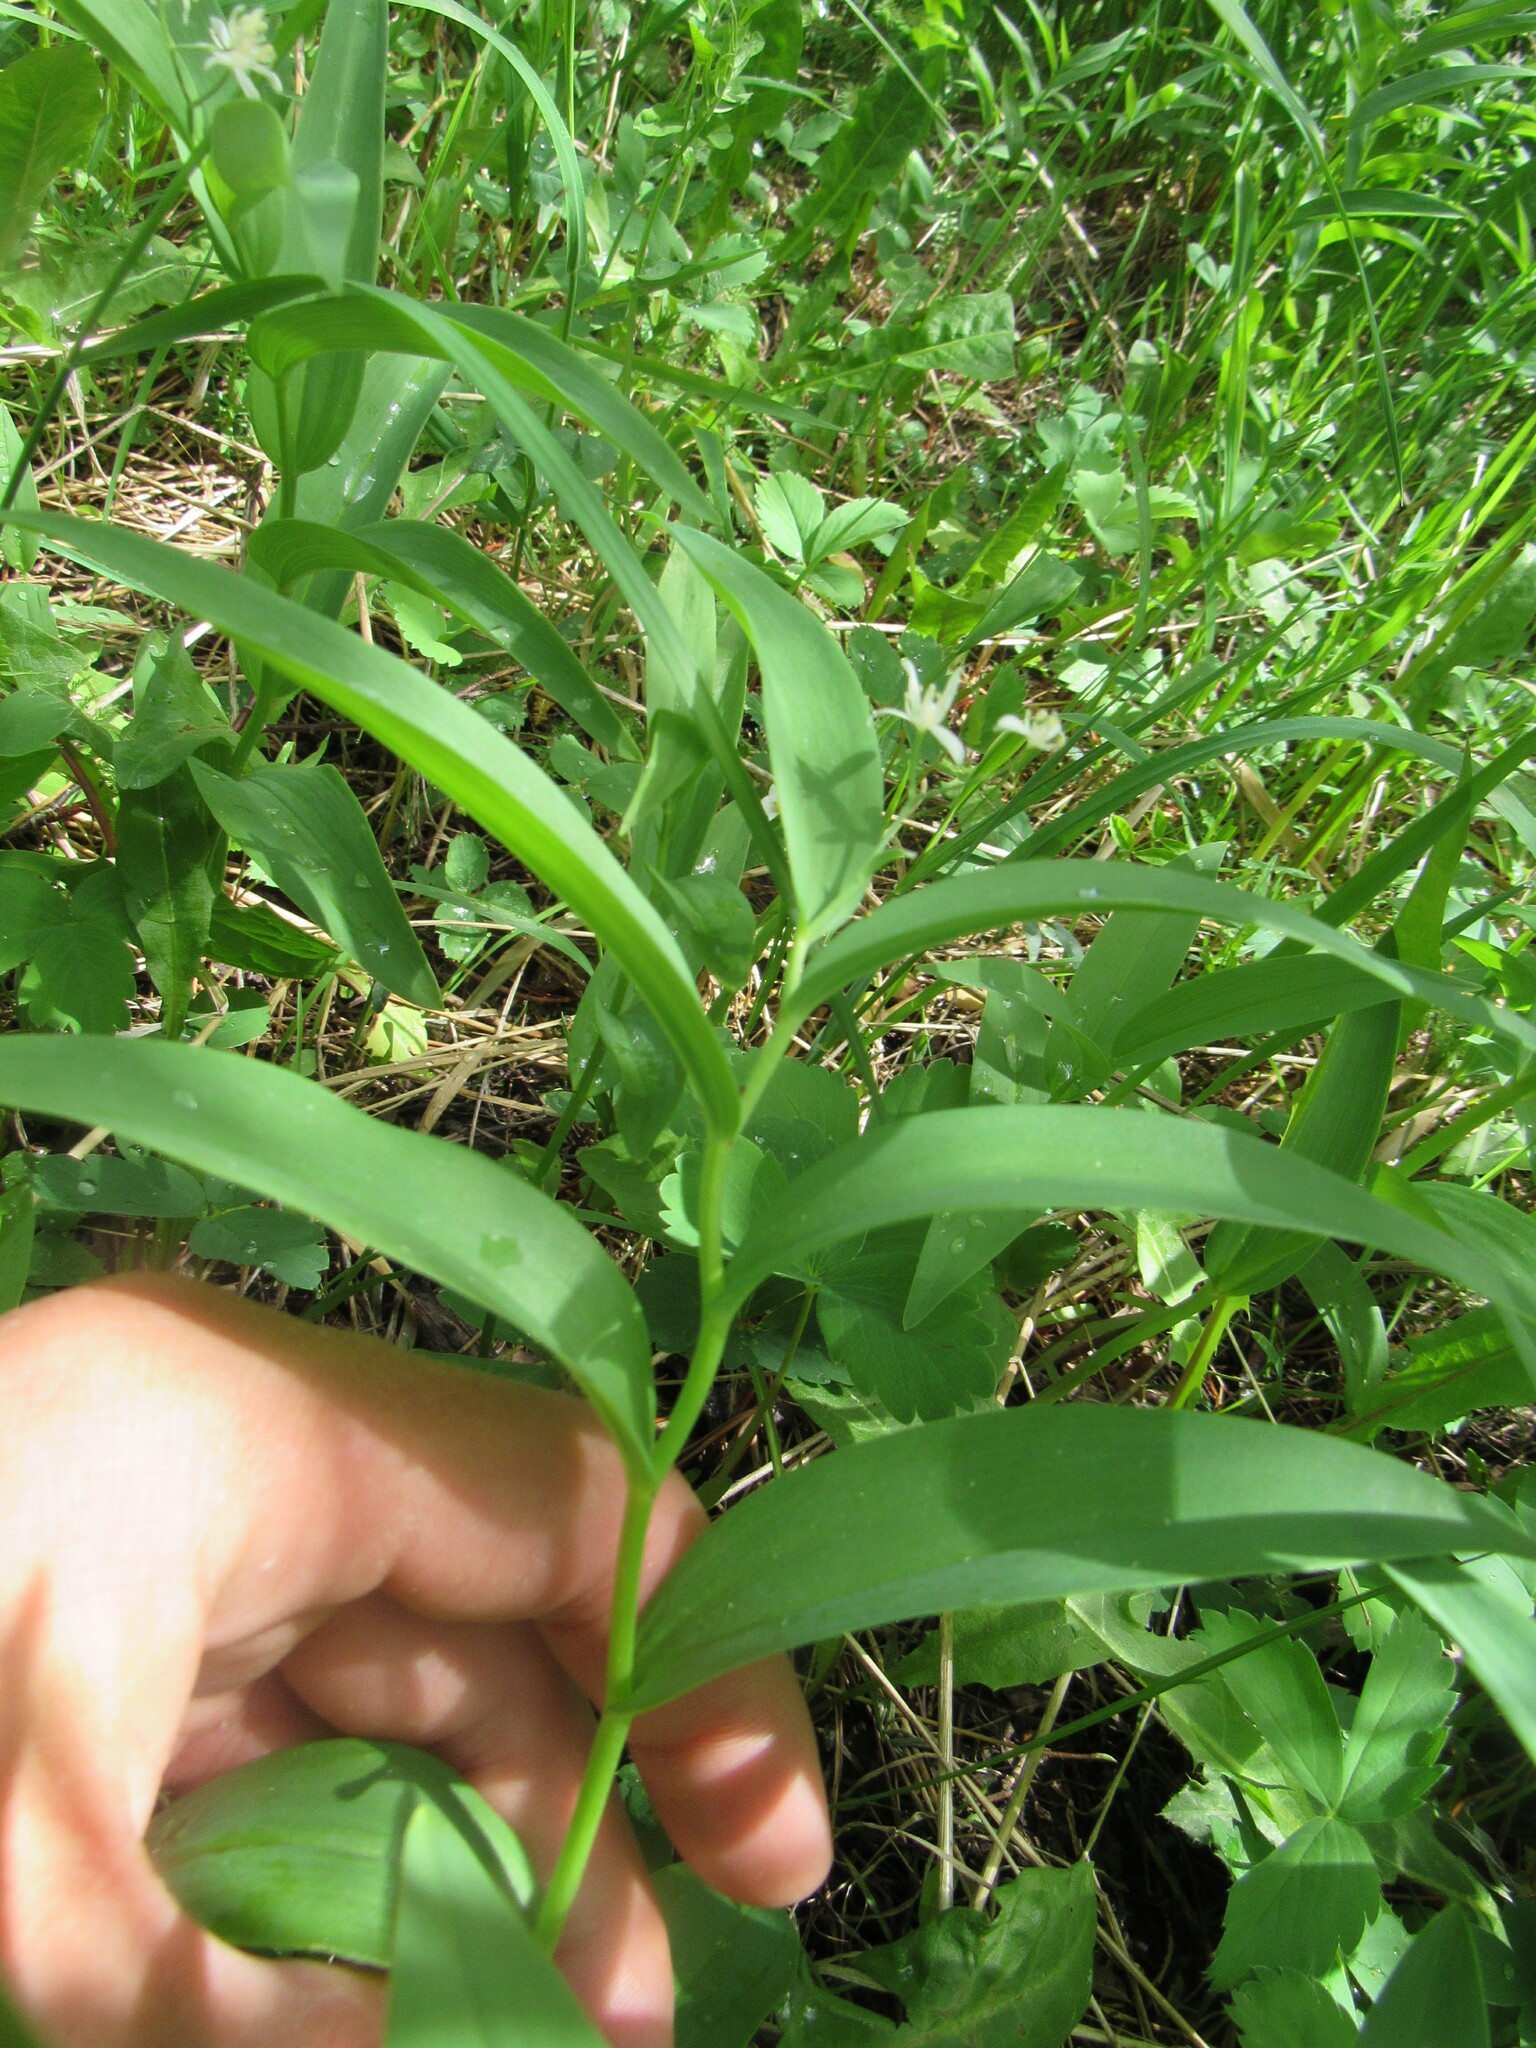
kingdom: Plantae
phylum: Tracheophyta
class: Liliopsida
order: Asparagales
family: Asparagaceae
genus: Maianthemum
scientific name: Maianthemum stellatum
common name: Little false solomon's seal
